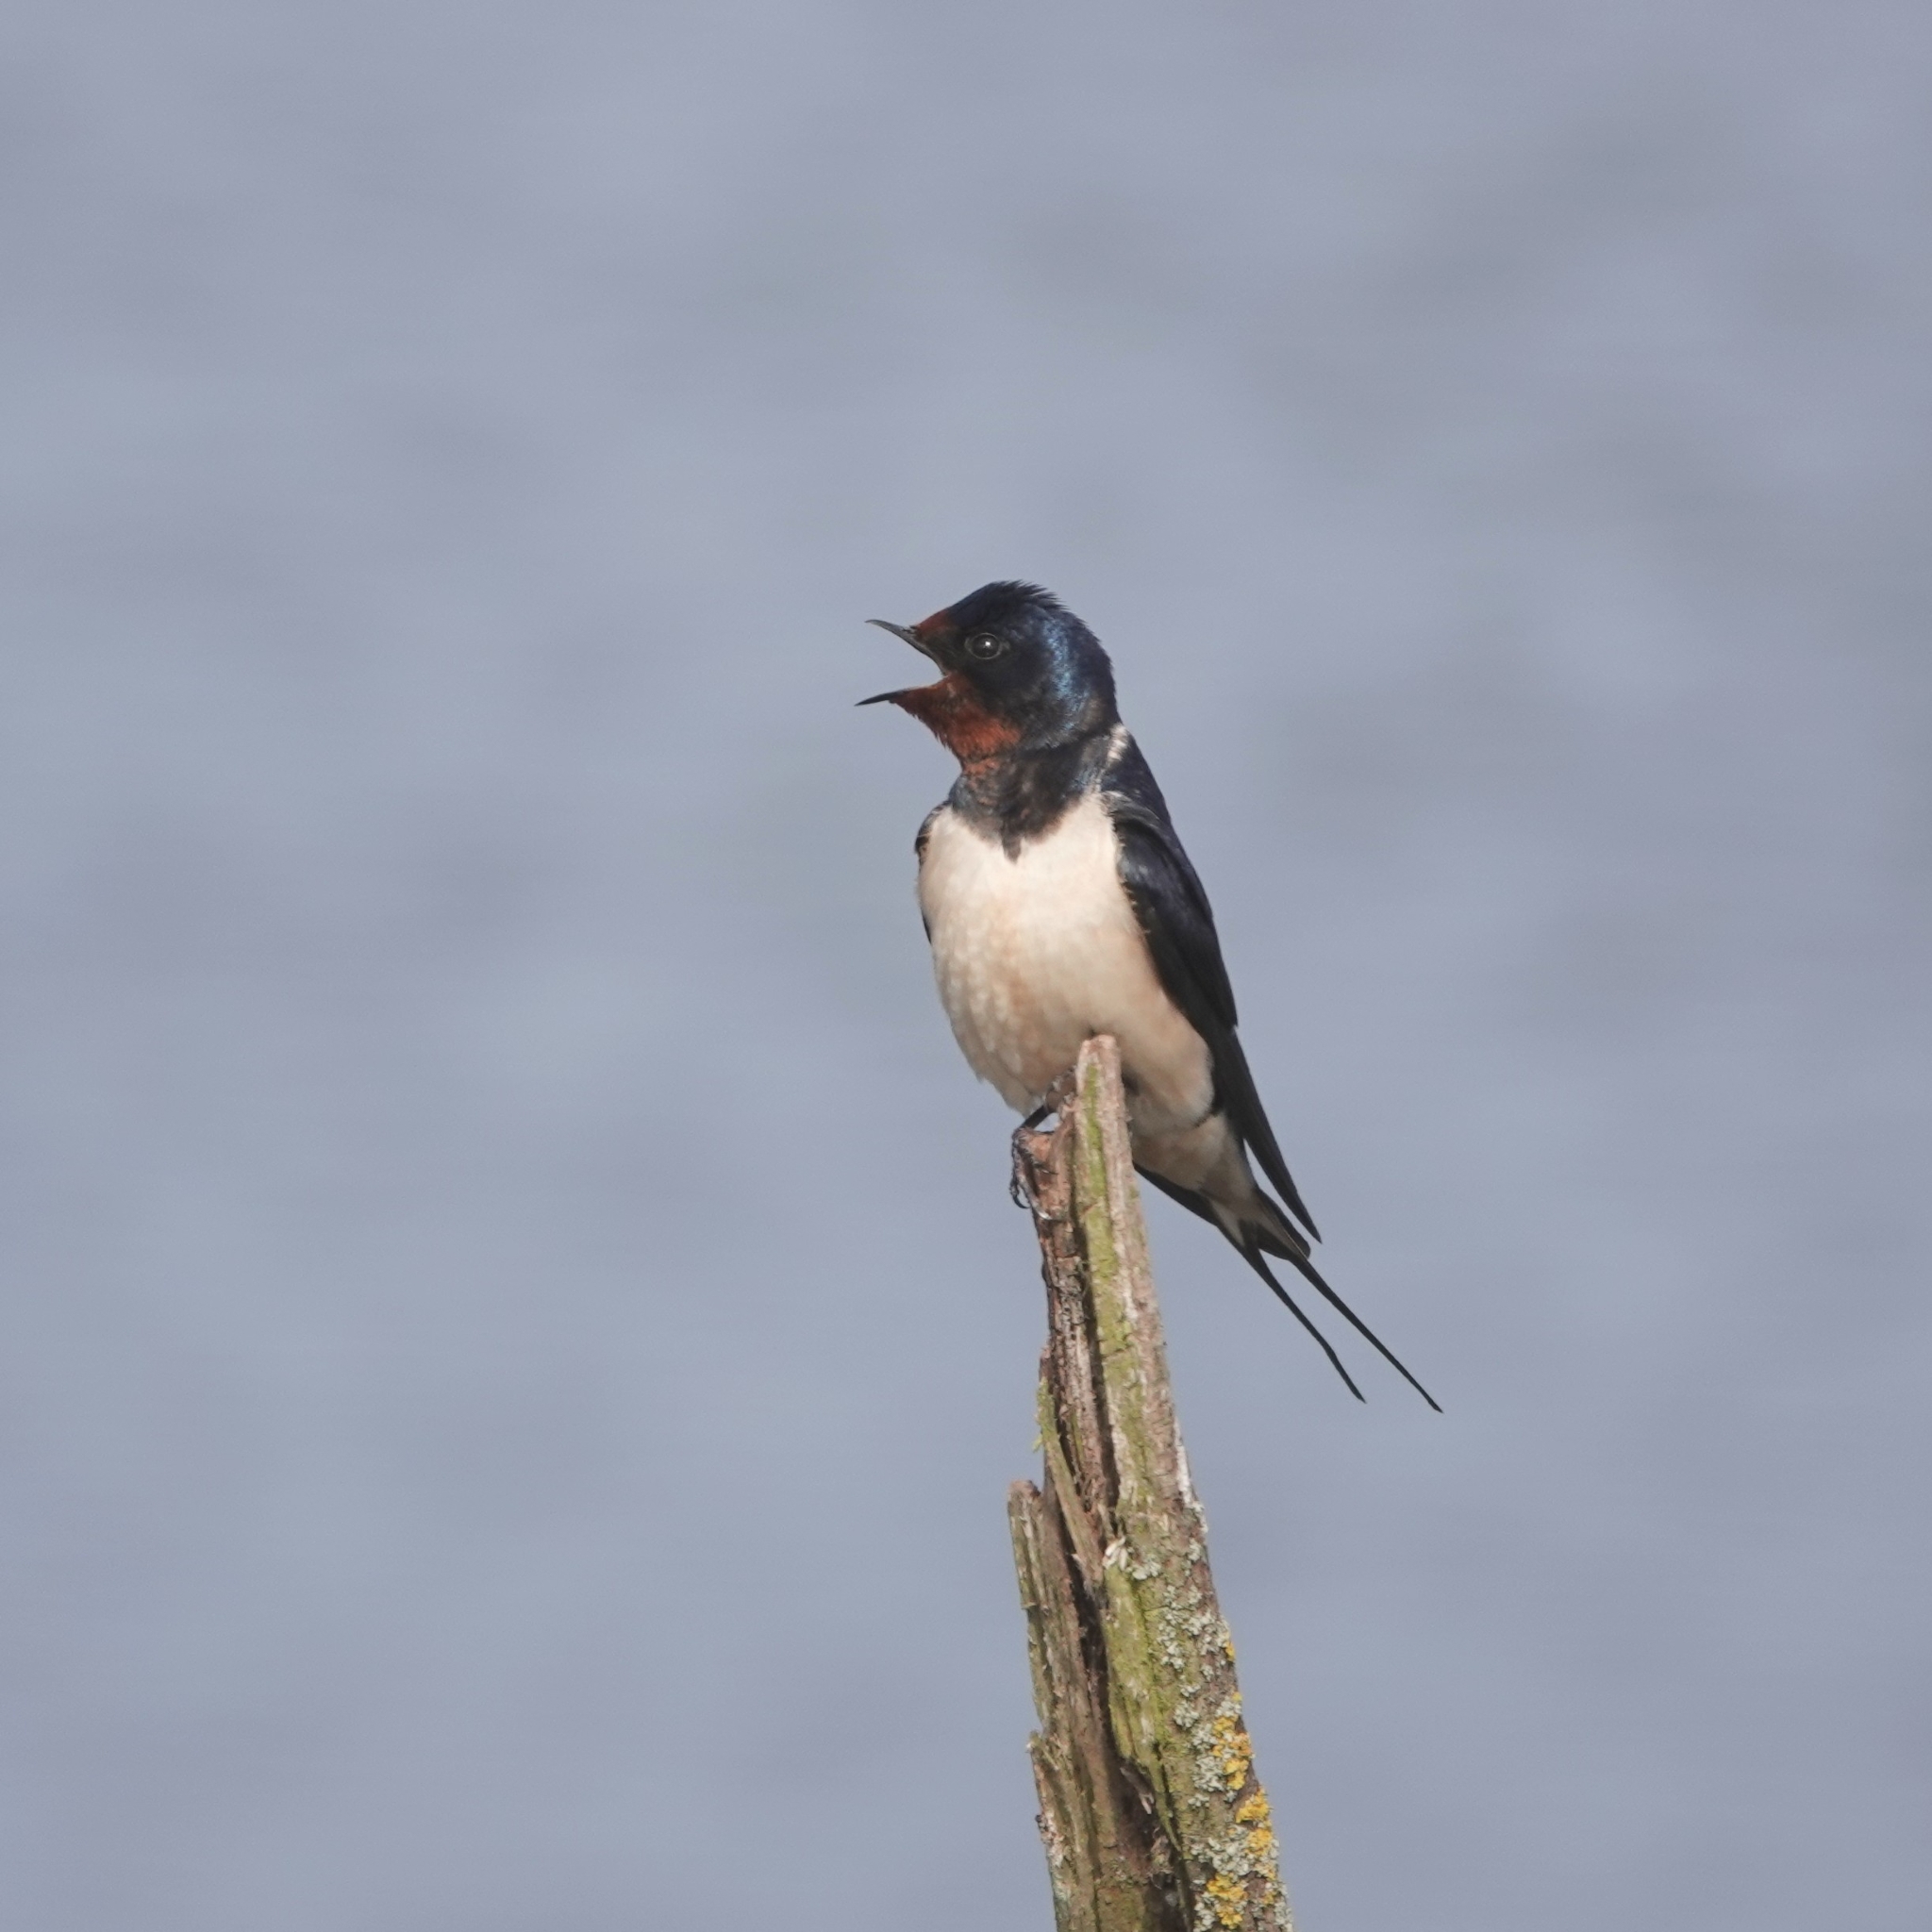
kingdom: Animalia
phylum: Chordata
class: Aves
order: Passeriformes
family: Hirundinidae
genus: Hirundo
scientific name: Hirundo rustica
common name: Barn swallow
